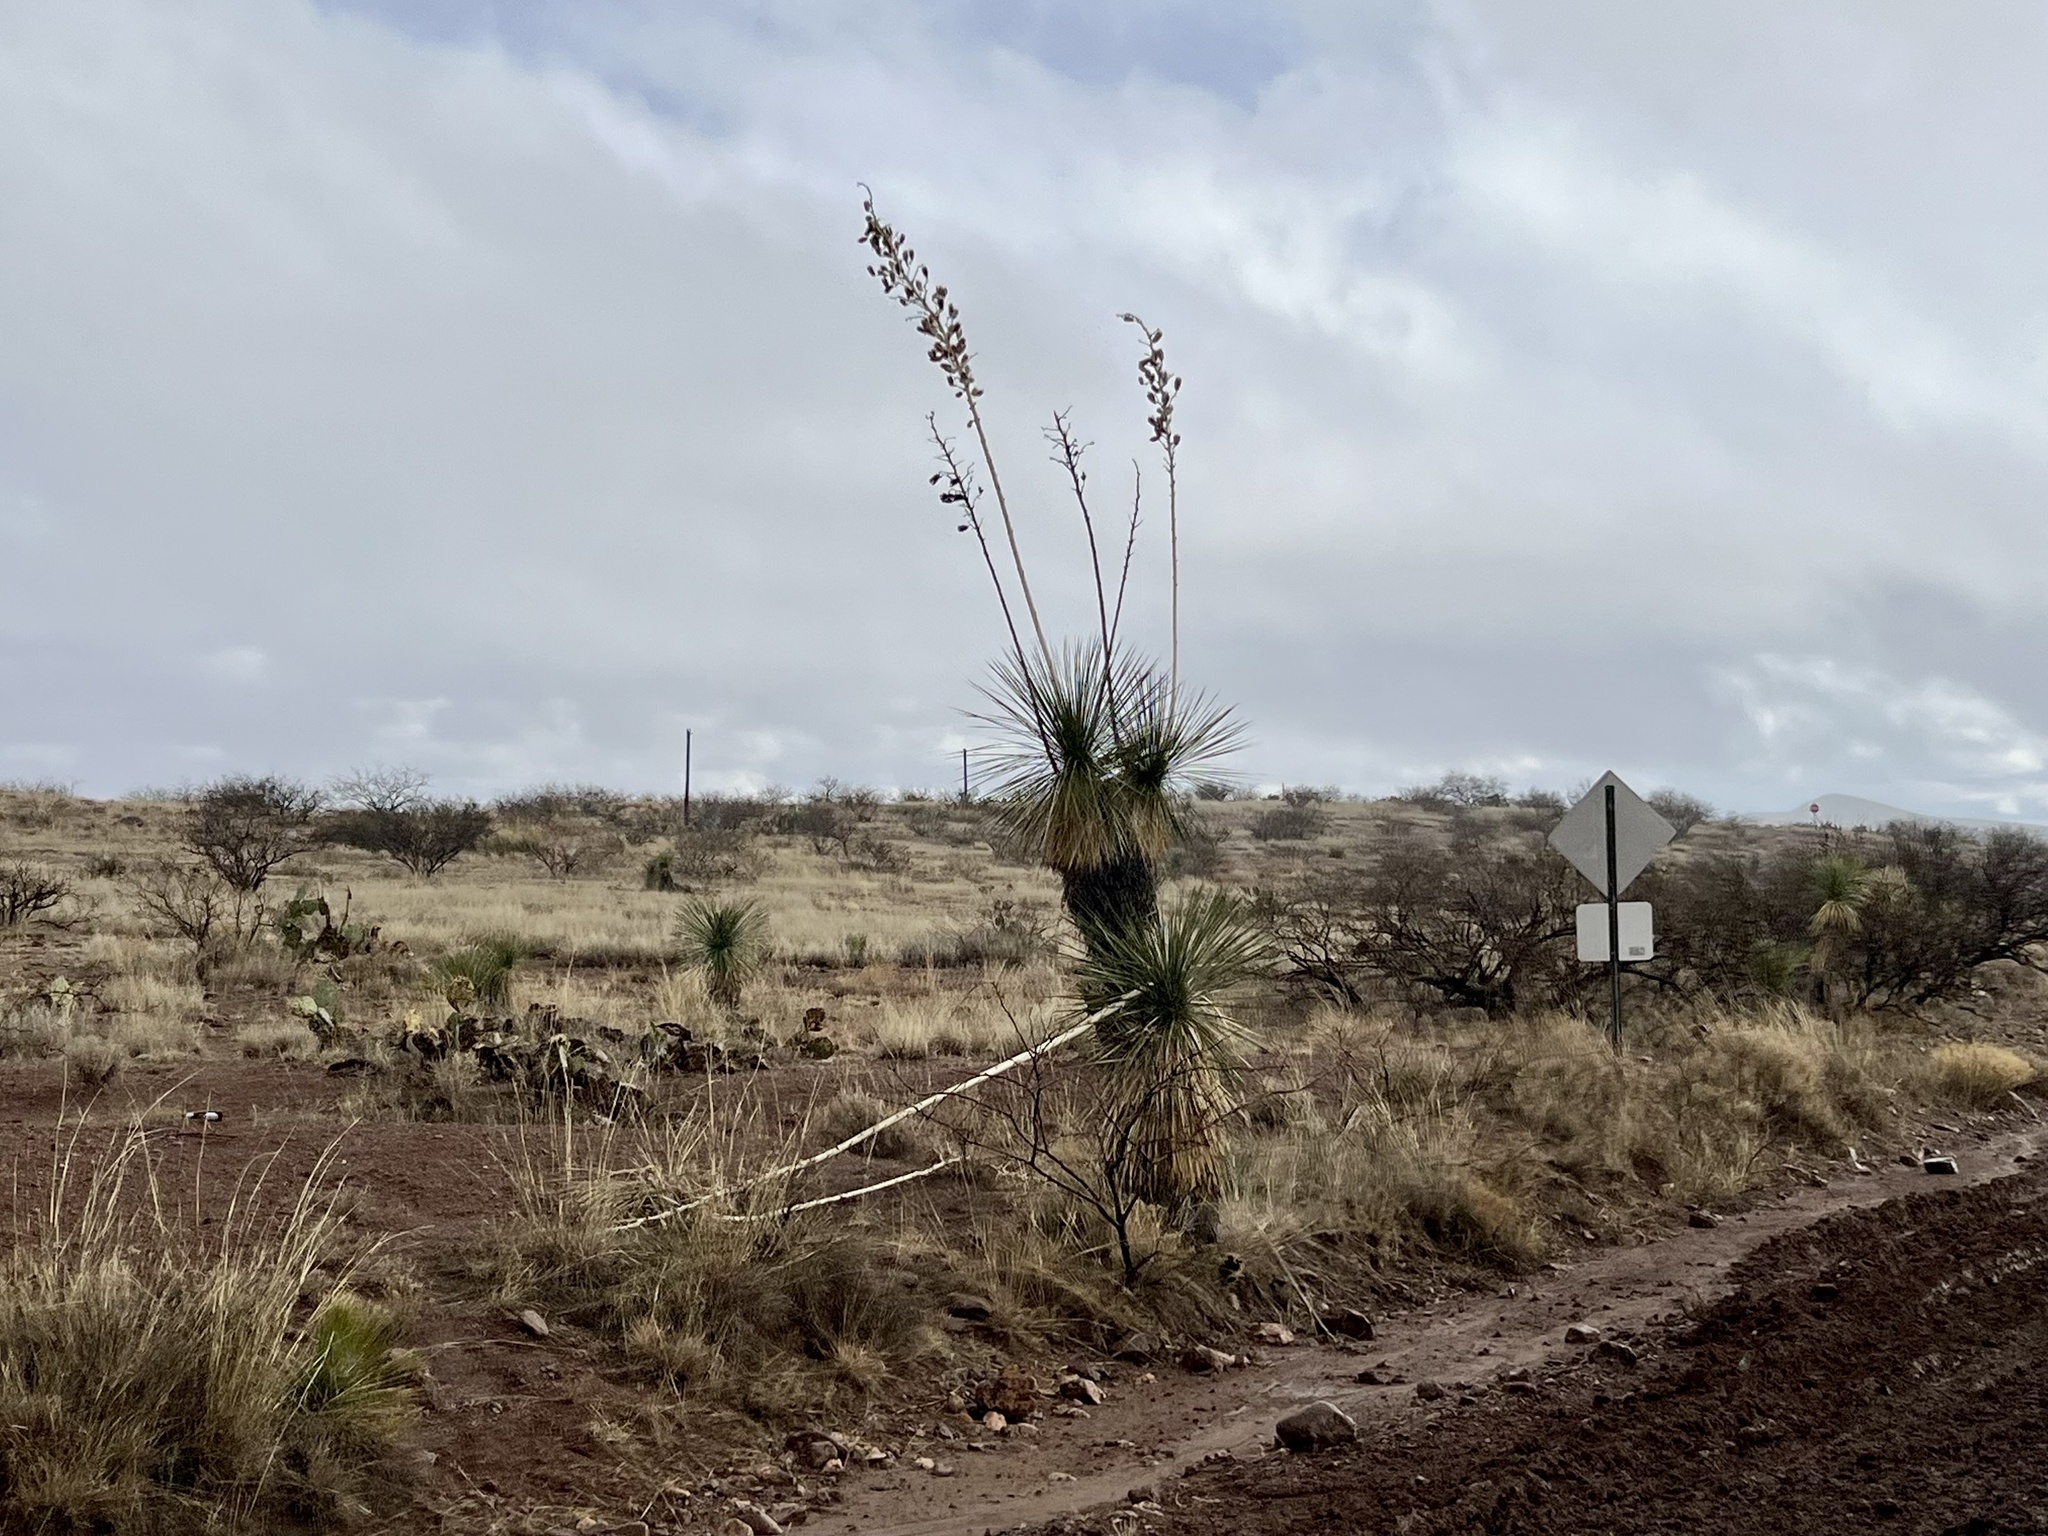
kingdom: Plantae
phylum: Tracheophyta
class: Liliopsida
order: Asparagales
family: Asparagaceae
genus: Yucca
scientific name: Yucca elata
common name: Palmella
